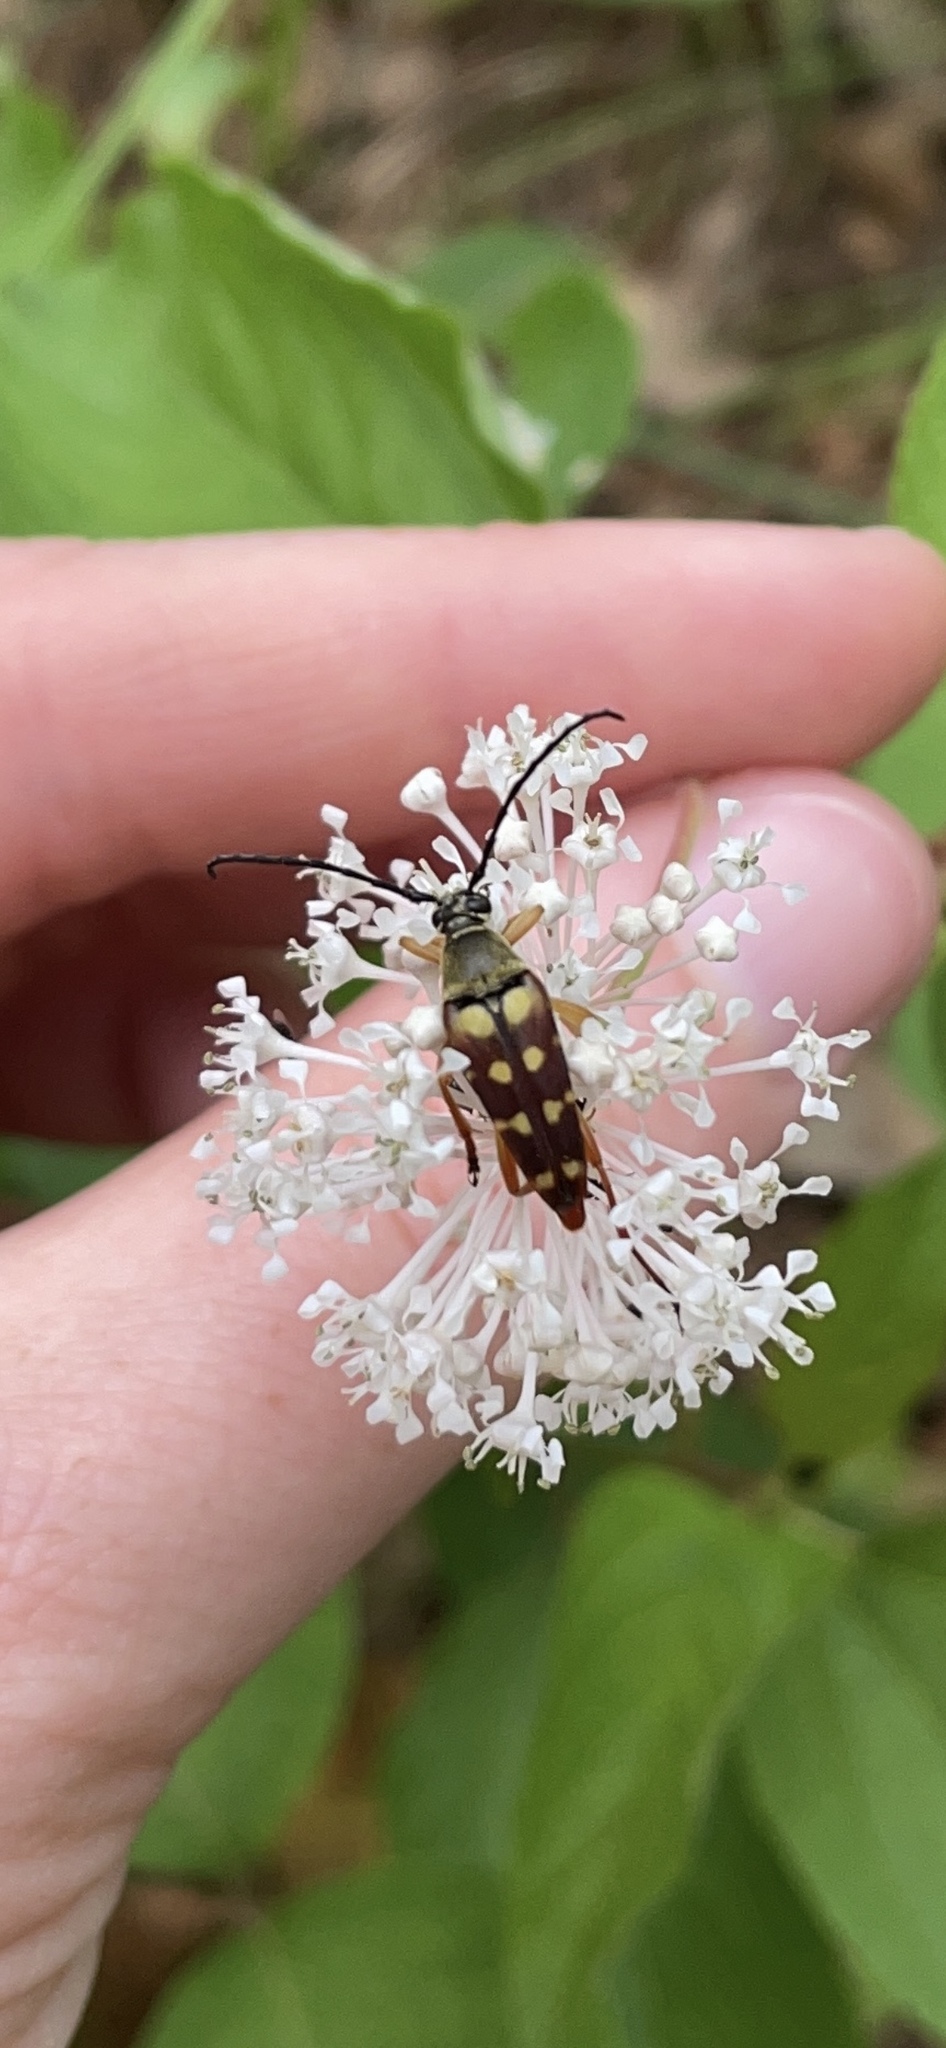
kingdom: Animalia
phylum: Arthropoda
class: Insecta
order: Coleoptera
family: Cerambycidae
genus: Typocerus
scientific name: Typocerus velutinus
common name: Banded longhorn beetle
